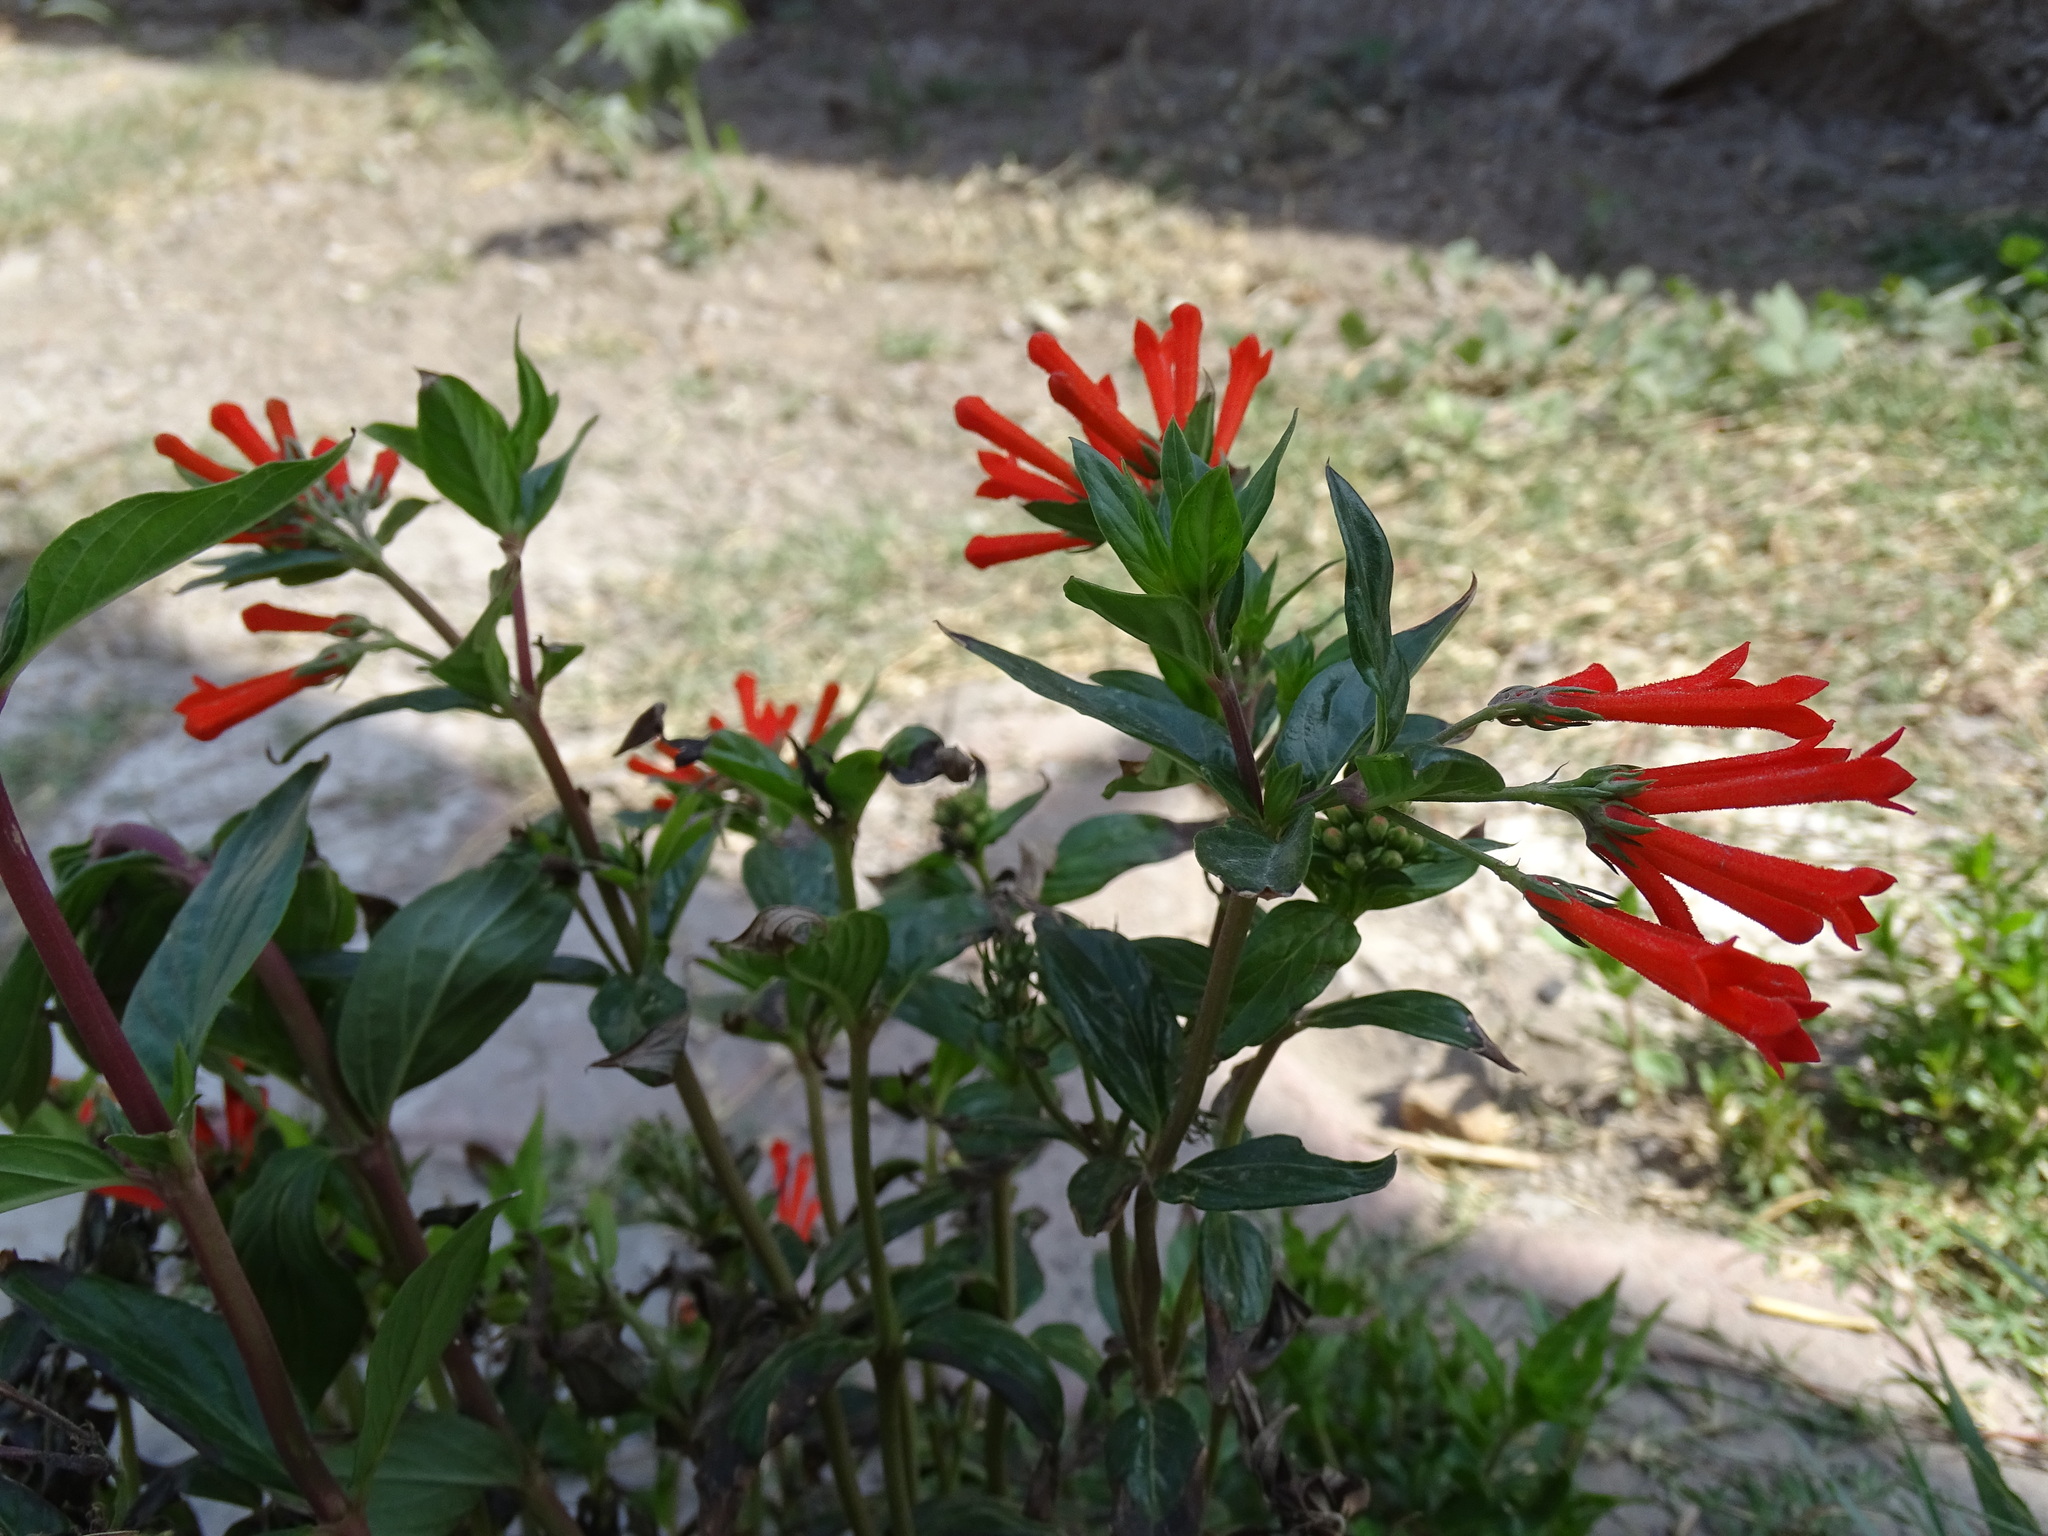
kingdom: Plantae
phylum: Tracheophyta
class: Magnoliopsida
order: Gentianales
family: Rubiaceae
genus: Bouvardia
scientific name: Bouvardia ternifolia
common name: Scarlet bouvardia
